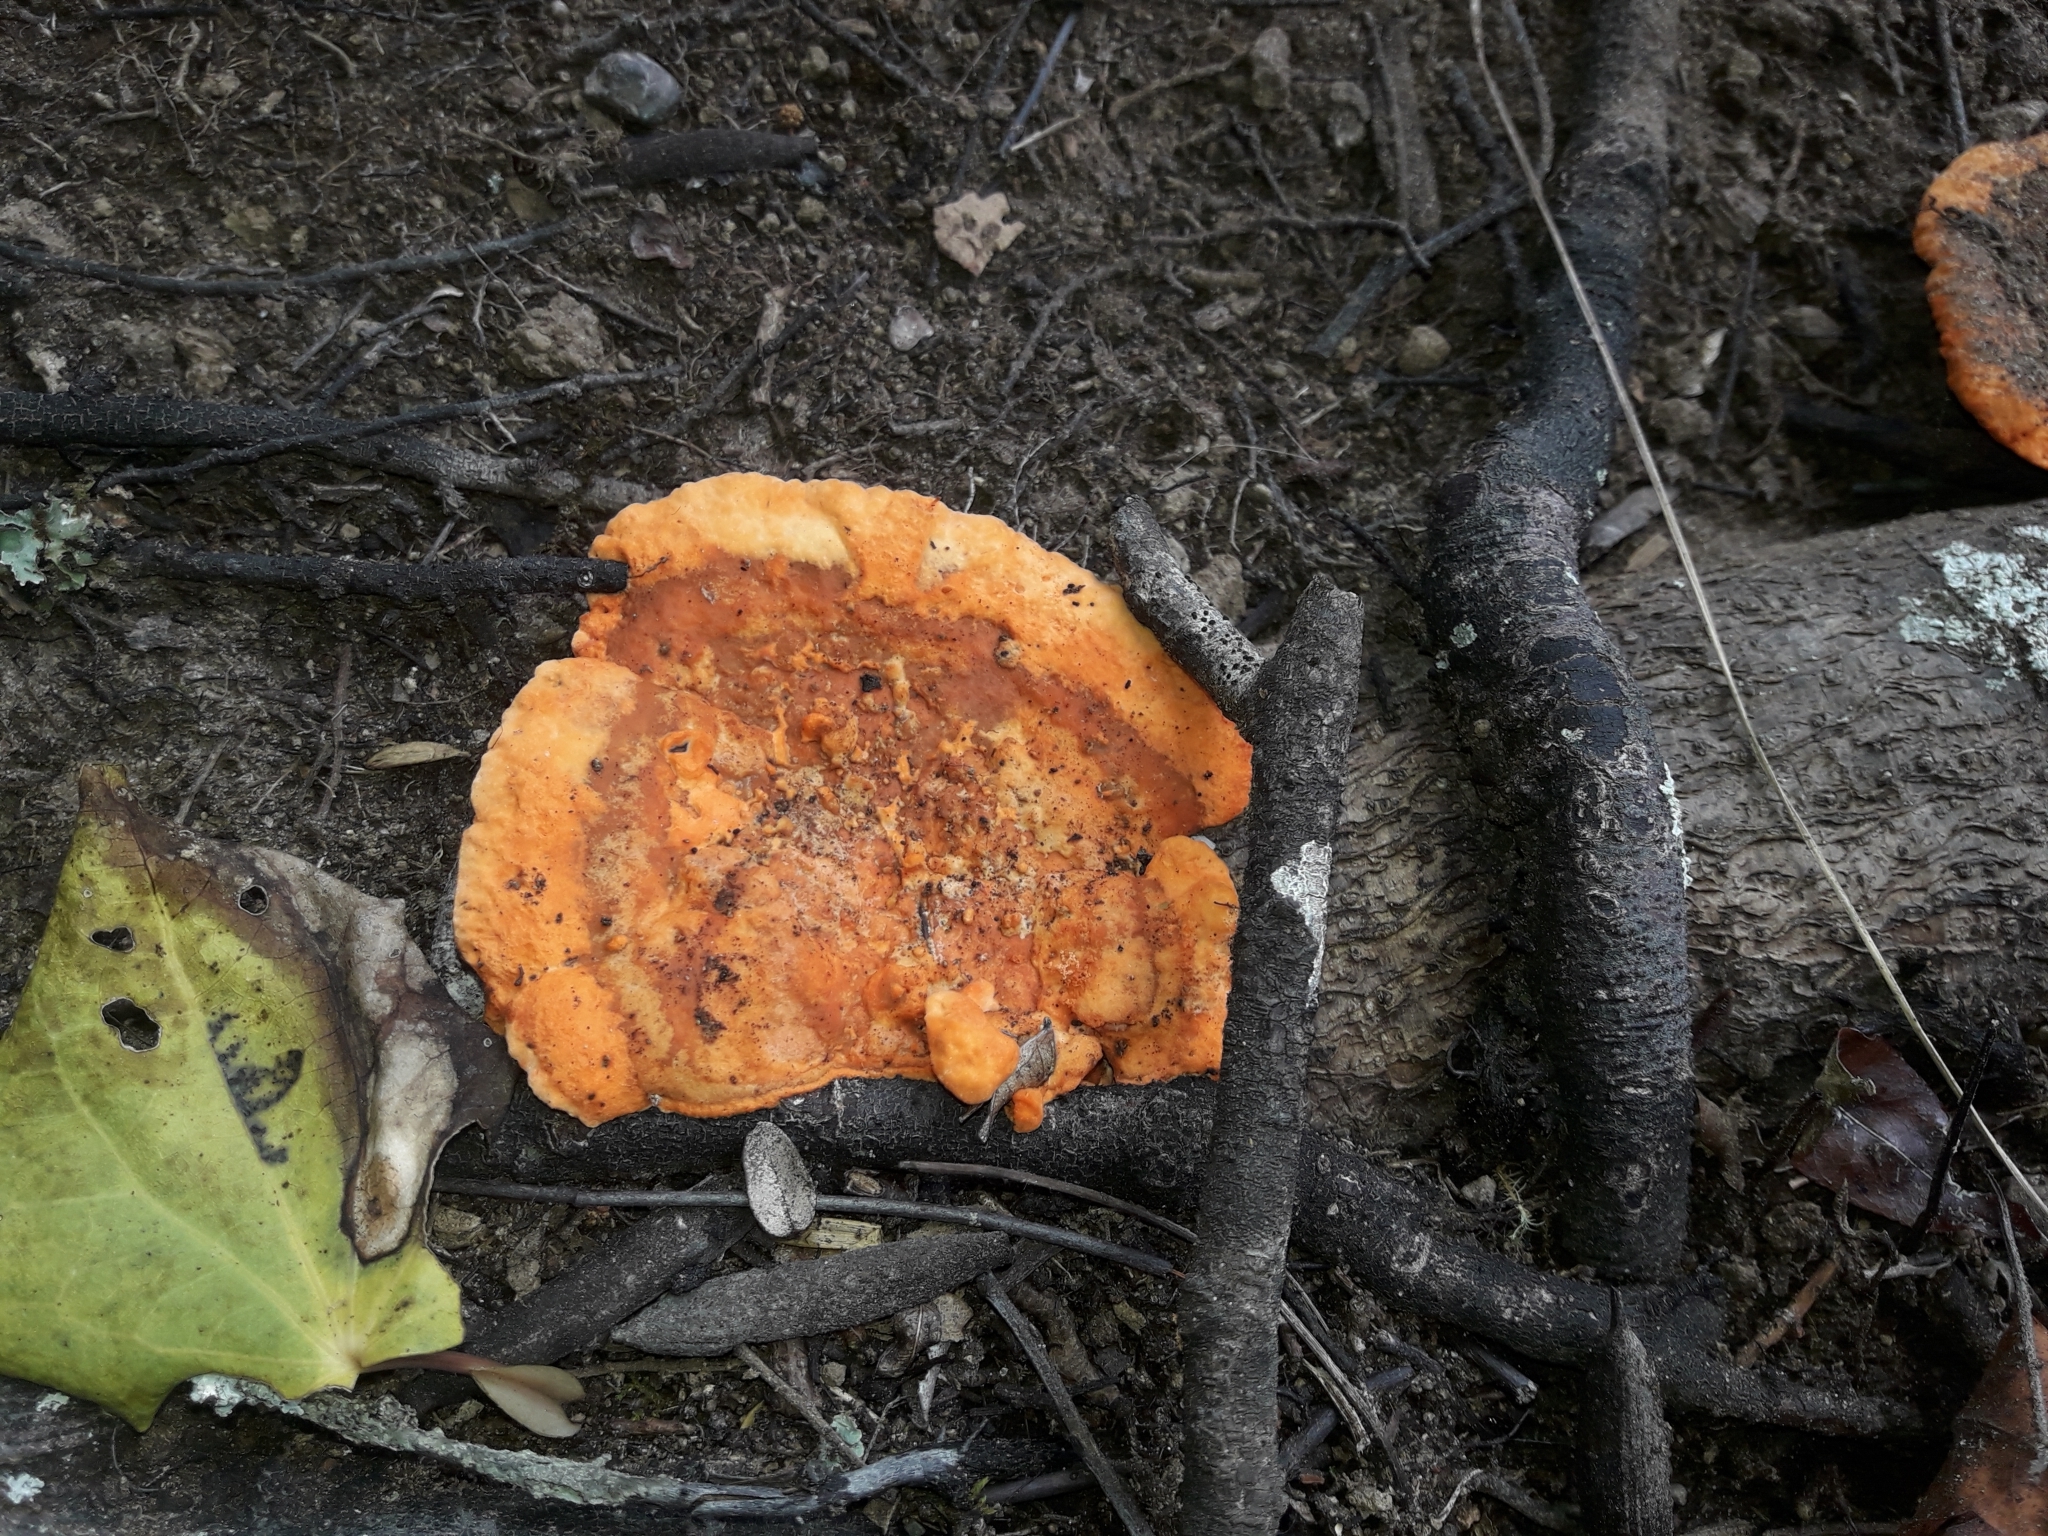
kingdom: Fungi
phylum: Basidiomycota
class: Agaricomycetes
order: Polyporales
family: Polyporaceae
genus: Trametes
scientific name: Trametes coccinea
